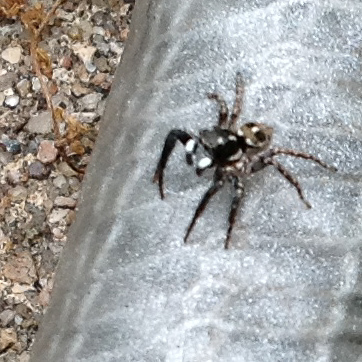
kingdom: Animalia
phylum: Arthropoda
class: Arachnida
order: Araneae
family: Salticidae
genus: Anasaitis
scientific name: Anasaitis canosa
